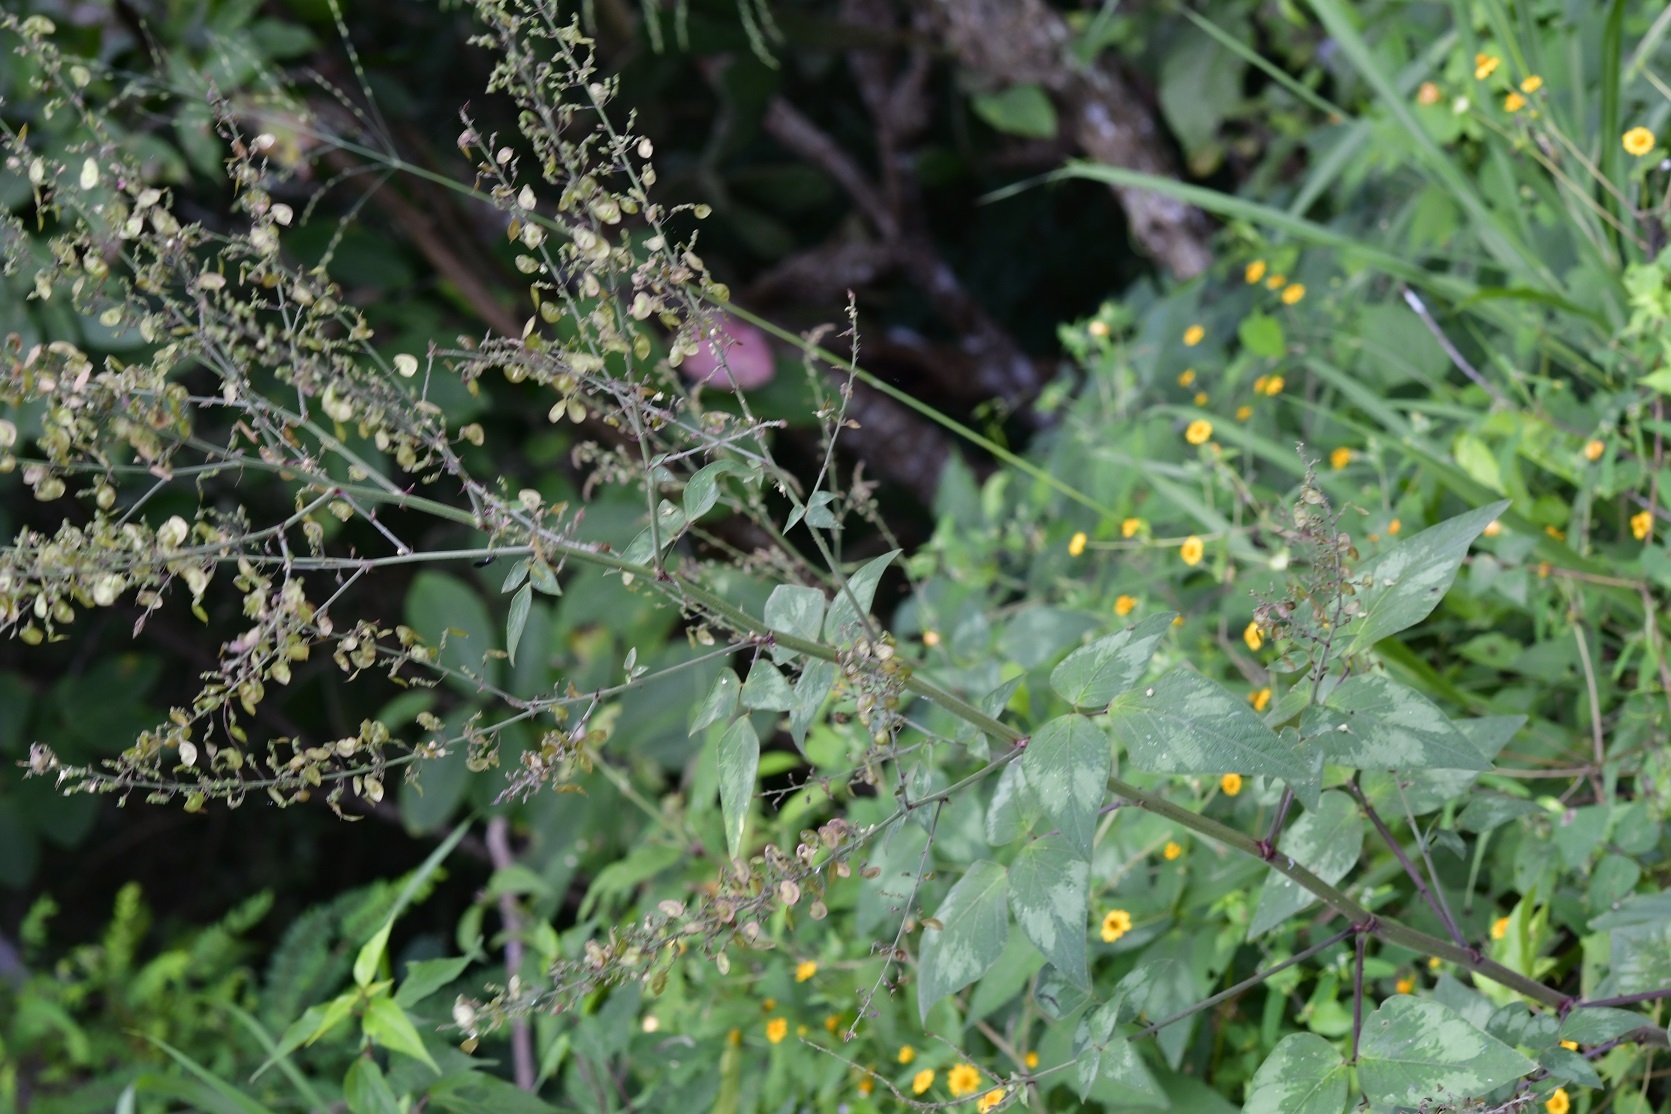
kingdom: Plantae
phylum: Tracheophyta
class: Magnoliopsida
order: Fabales
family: Fabaceae
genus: Desmodium
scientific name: Desmodium nicaraguense
